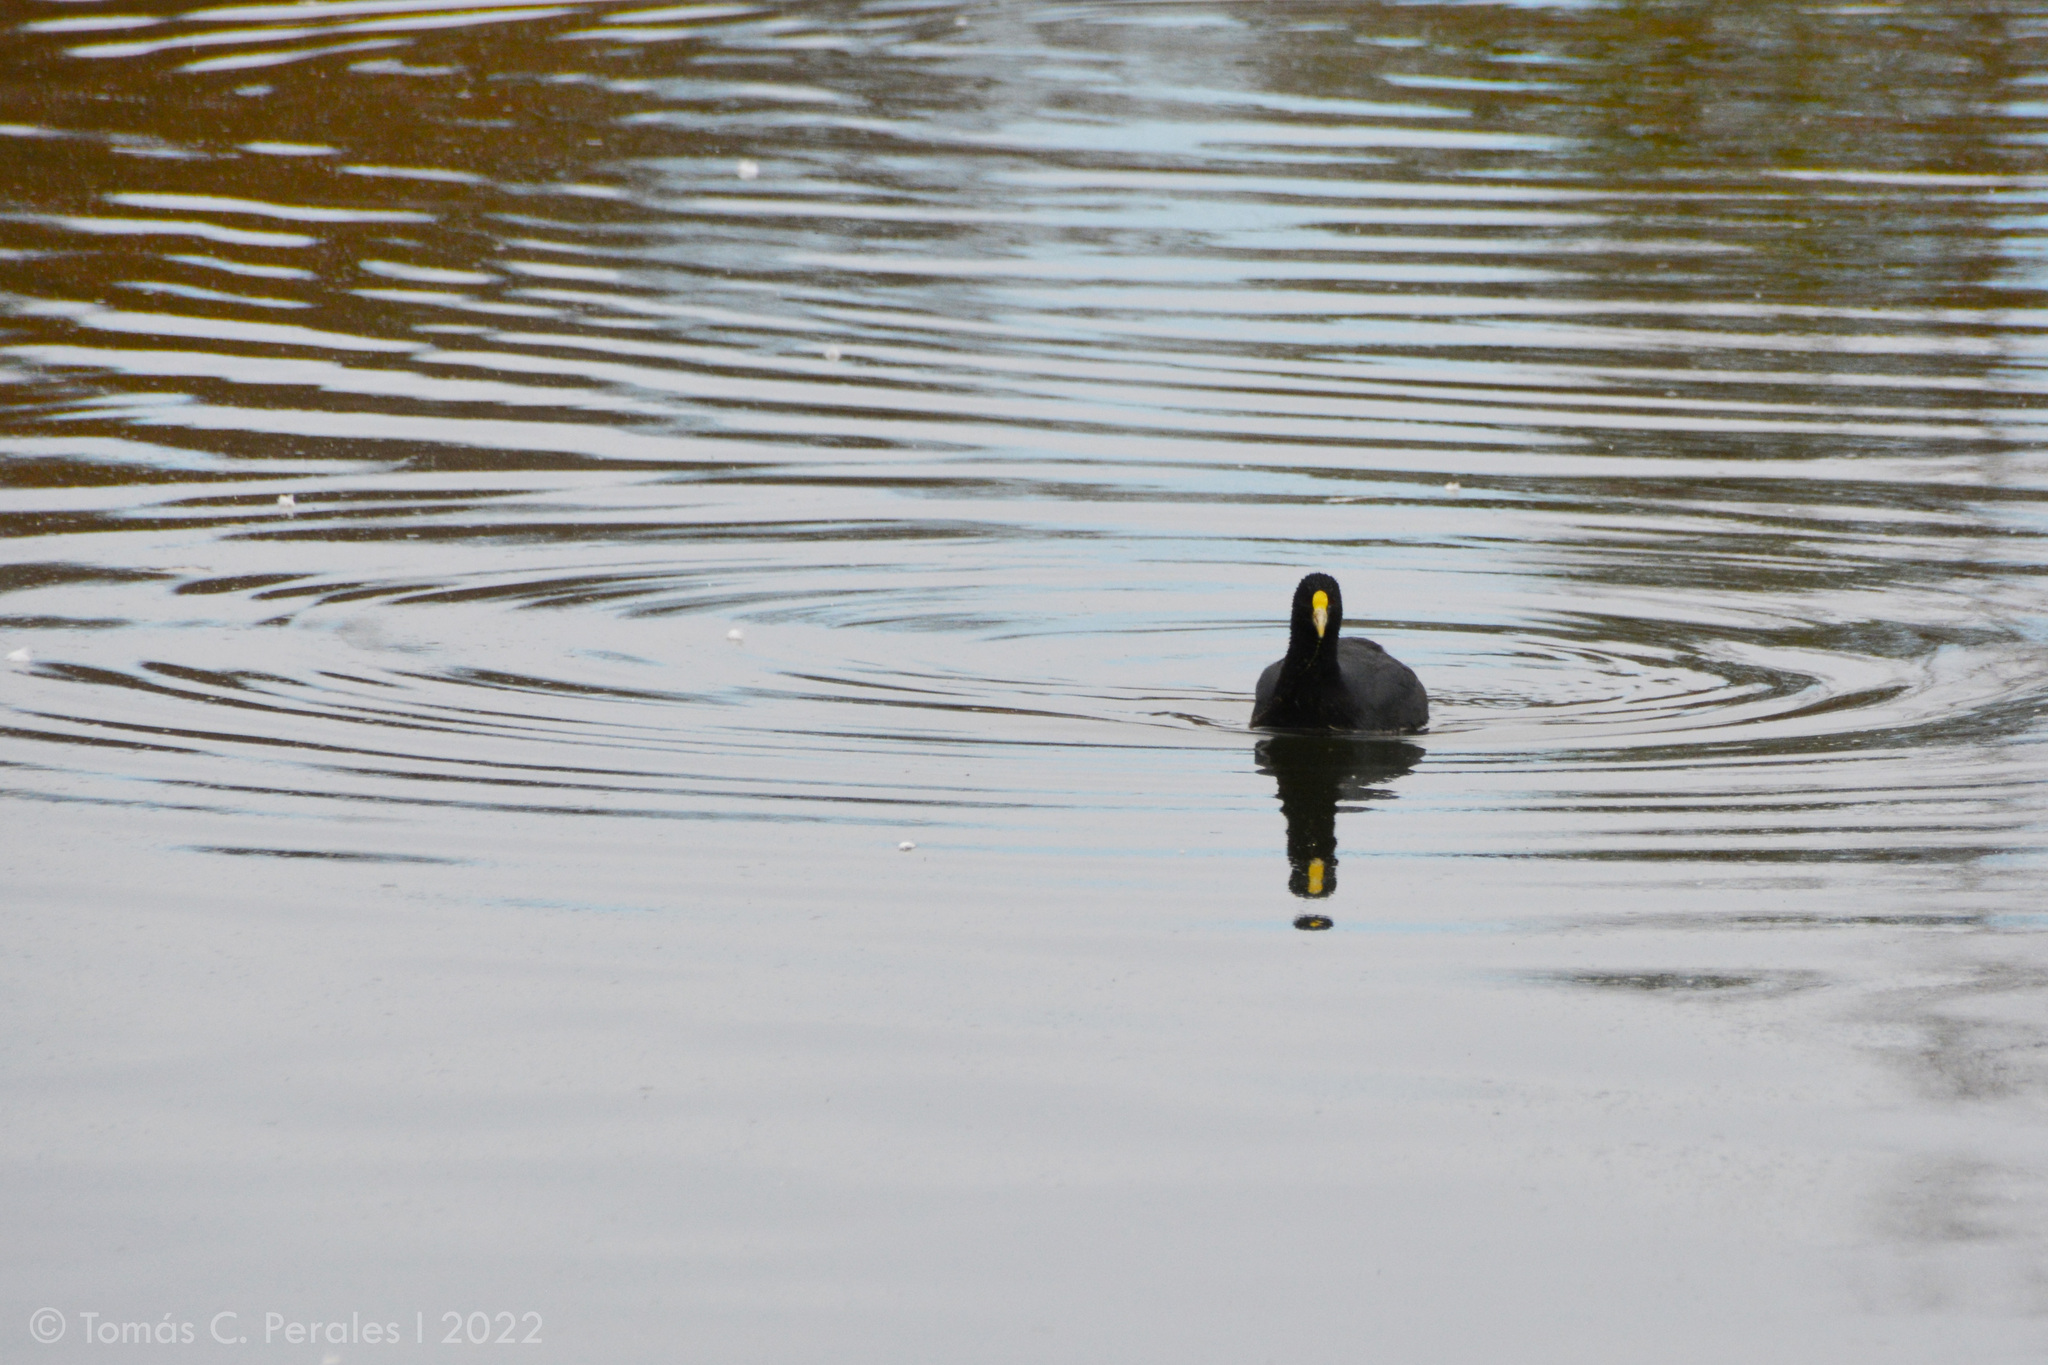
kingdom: Animalia
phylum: Chordata
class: Aves
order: Gruiformes
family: Rallidae
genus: Fulica
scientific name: Fulica leucoptera
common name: White-winged coot
